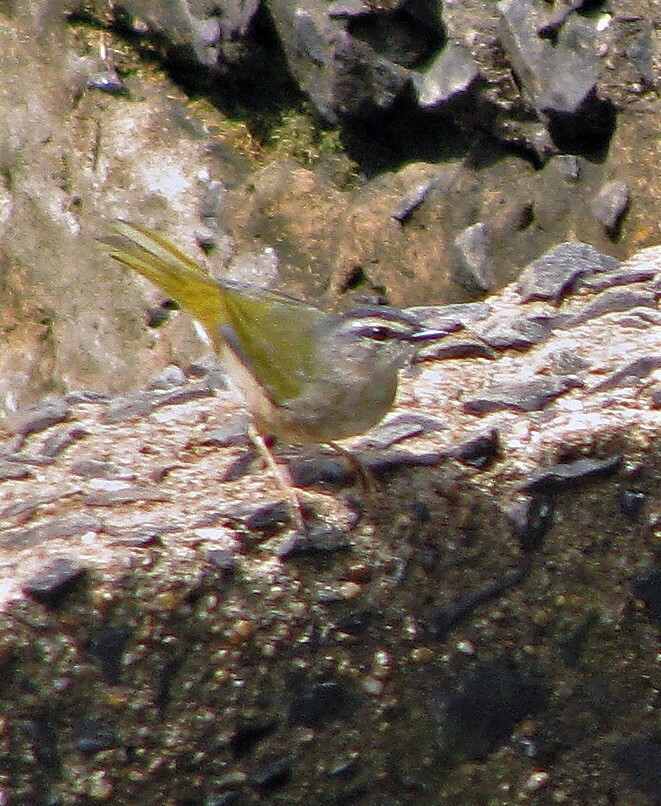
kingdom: Animalia
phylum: Chordata
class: Aves
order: Passeriformes
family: Parulidae
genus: Myiothlypis
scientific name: Myiothlypis rivularis
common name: Riverbank warbler
